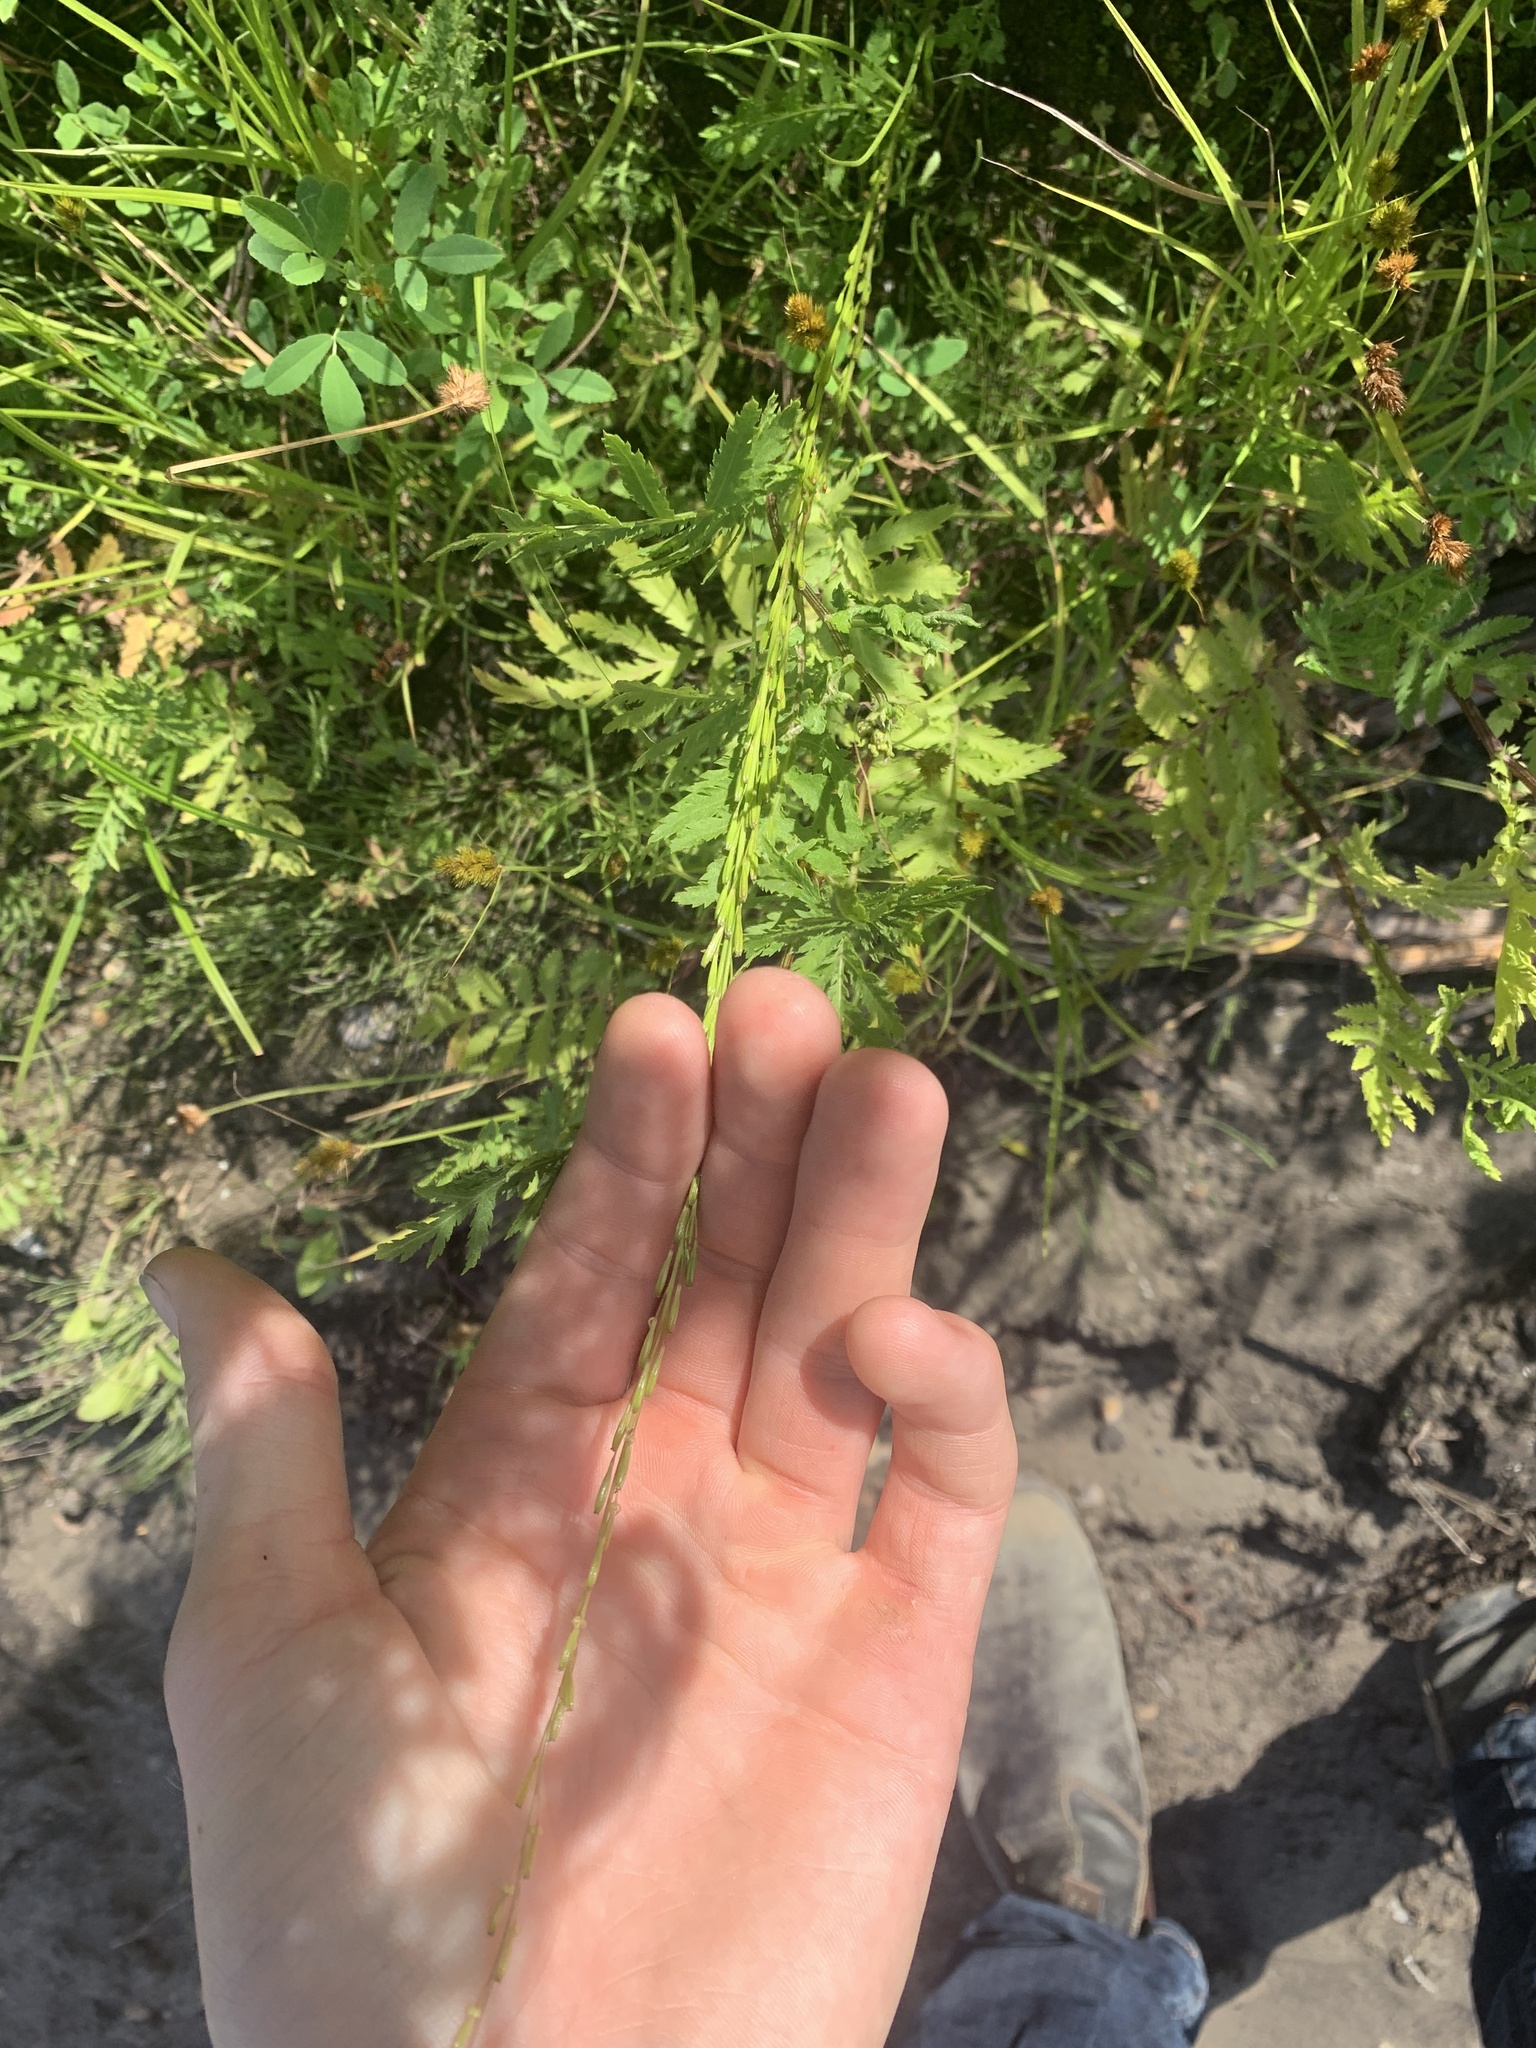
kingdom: Plantae
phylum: Tracheophyta
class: Liliopsida
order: Alismatales
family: Juncaginaceae
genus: Triglochin
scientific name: Triglochin palustris
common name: Marsh arrowgrass
